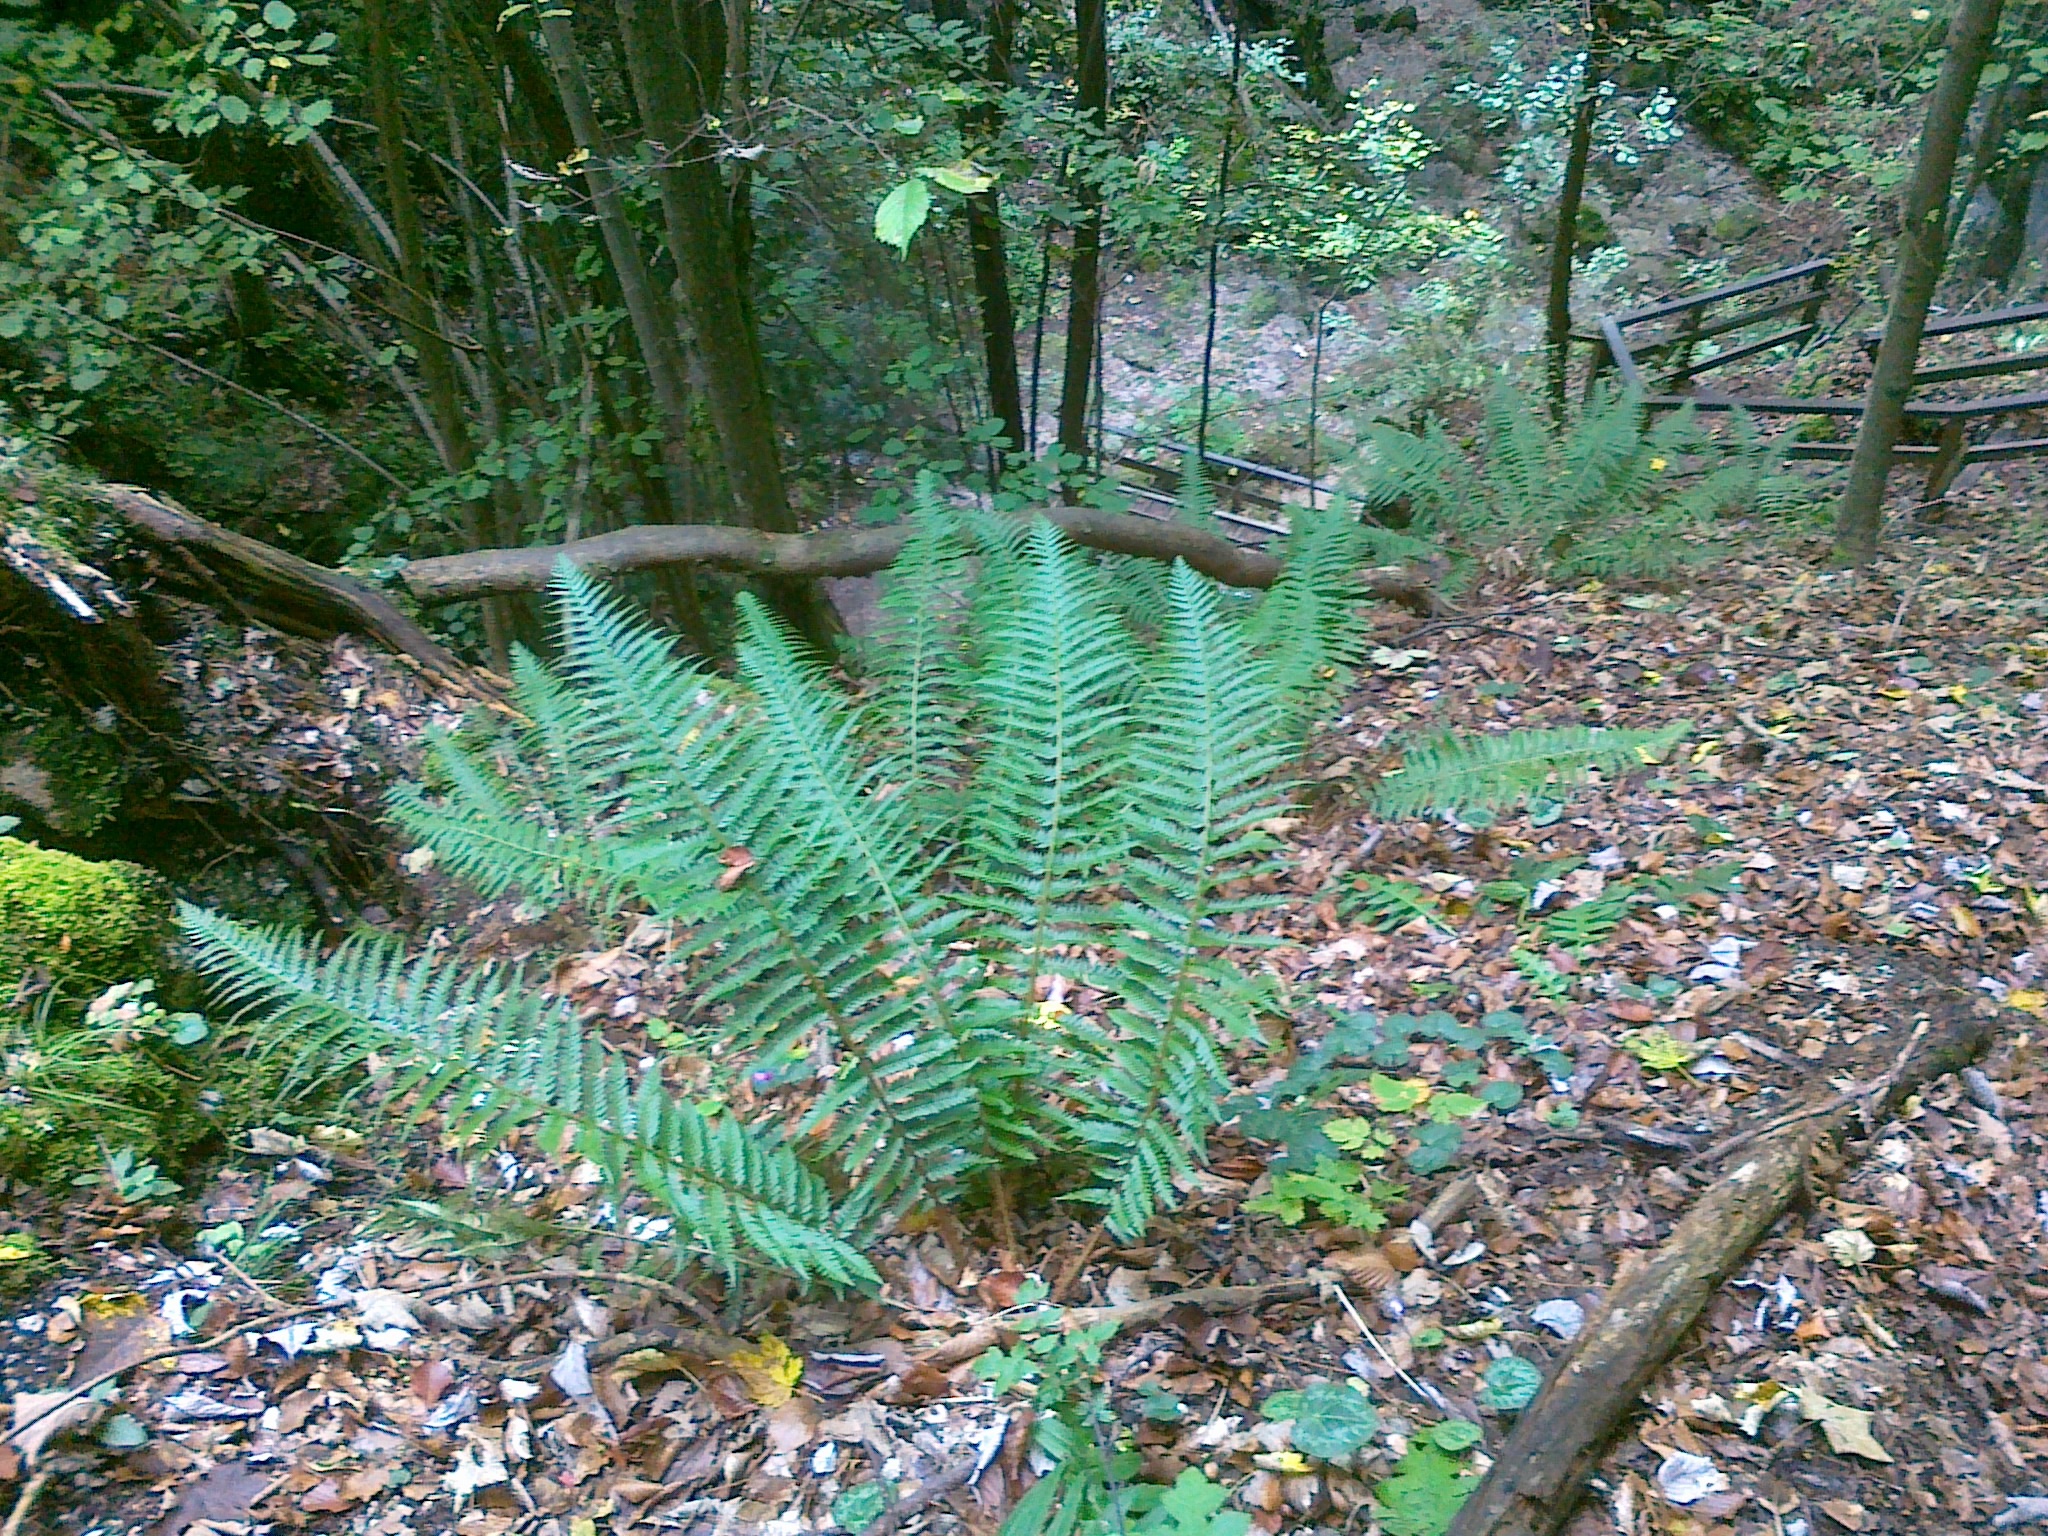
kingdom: Plantae
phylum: Tracheophyta
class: Polypodiopsida
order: Polypodiales
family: Dryopteridaceae
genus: Polystichum
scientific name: Polystichum aculeatum
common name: Hard shield-fern
